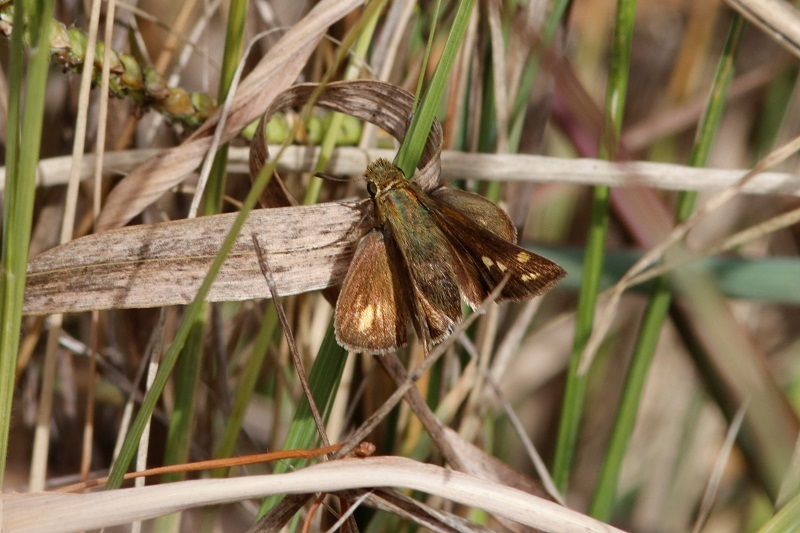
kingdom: Animalia
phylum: Arthropoda
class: Insecta
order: Hymenoptera
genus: Afrogenes
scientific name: Afrogenes
